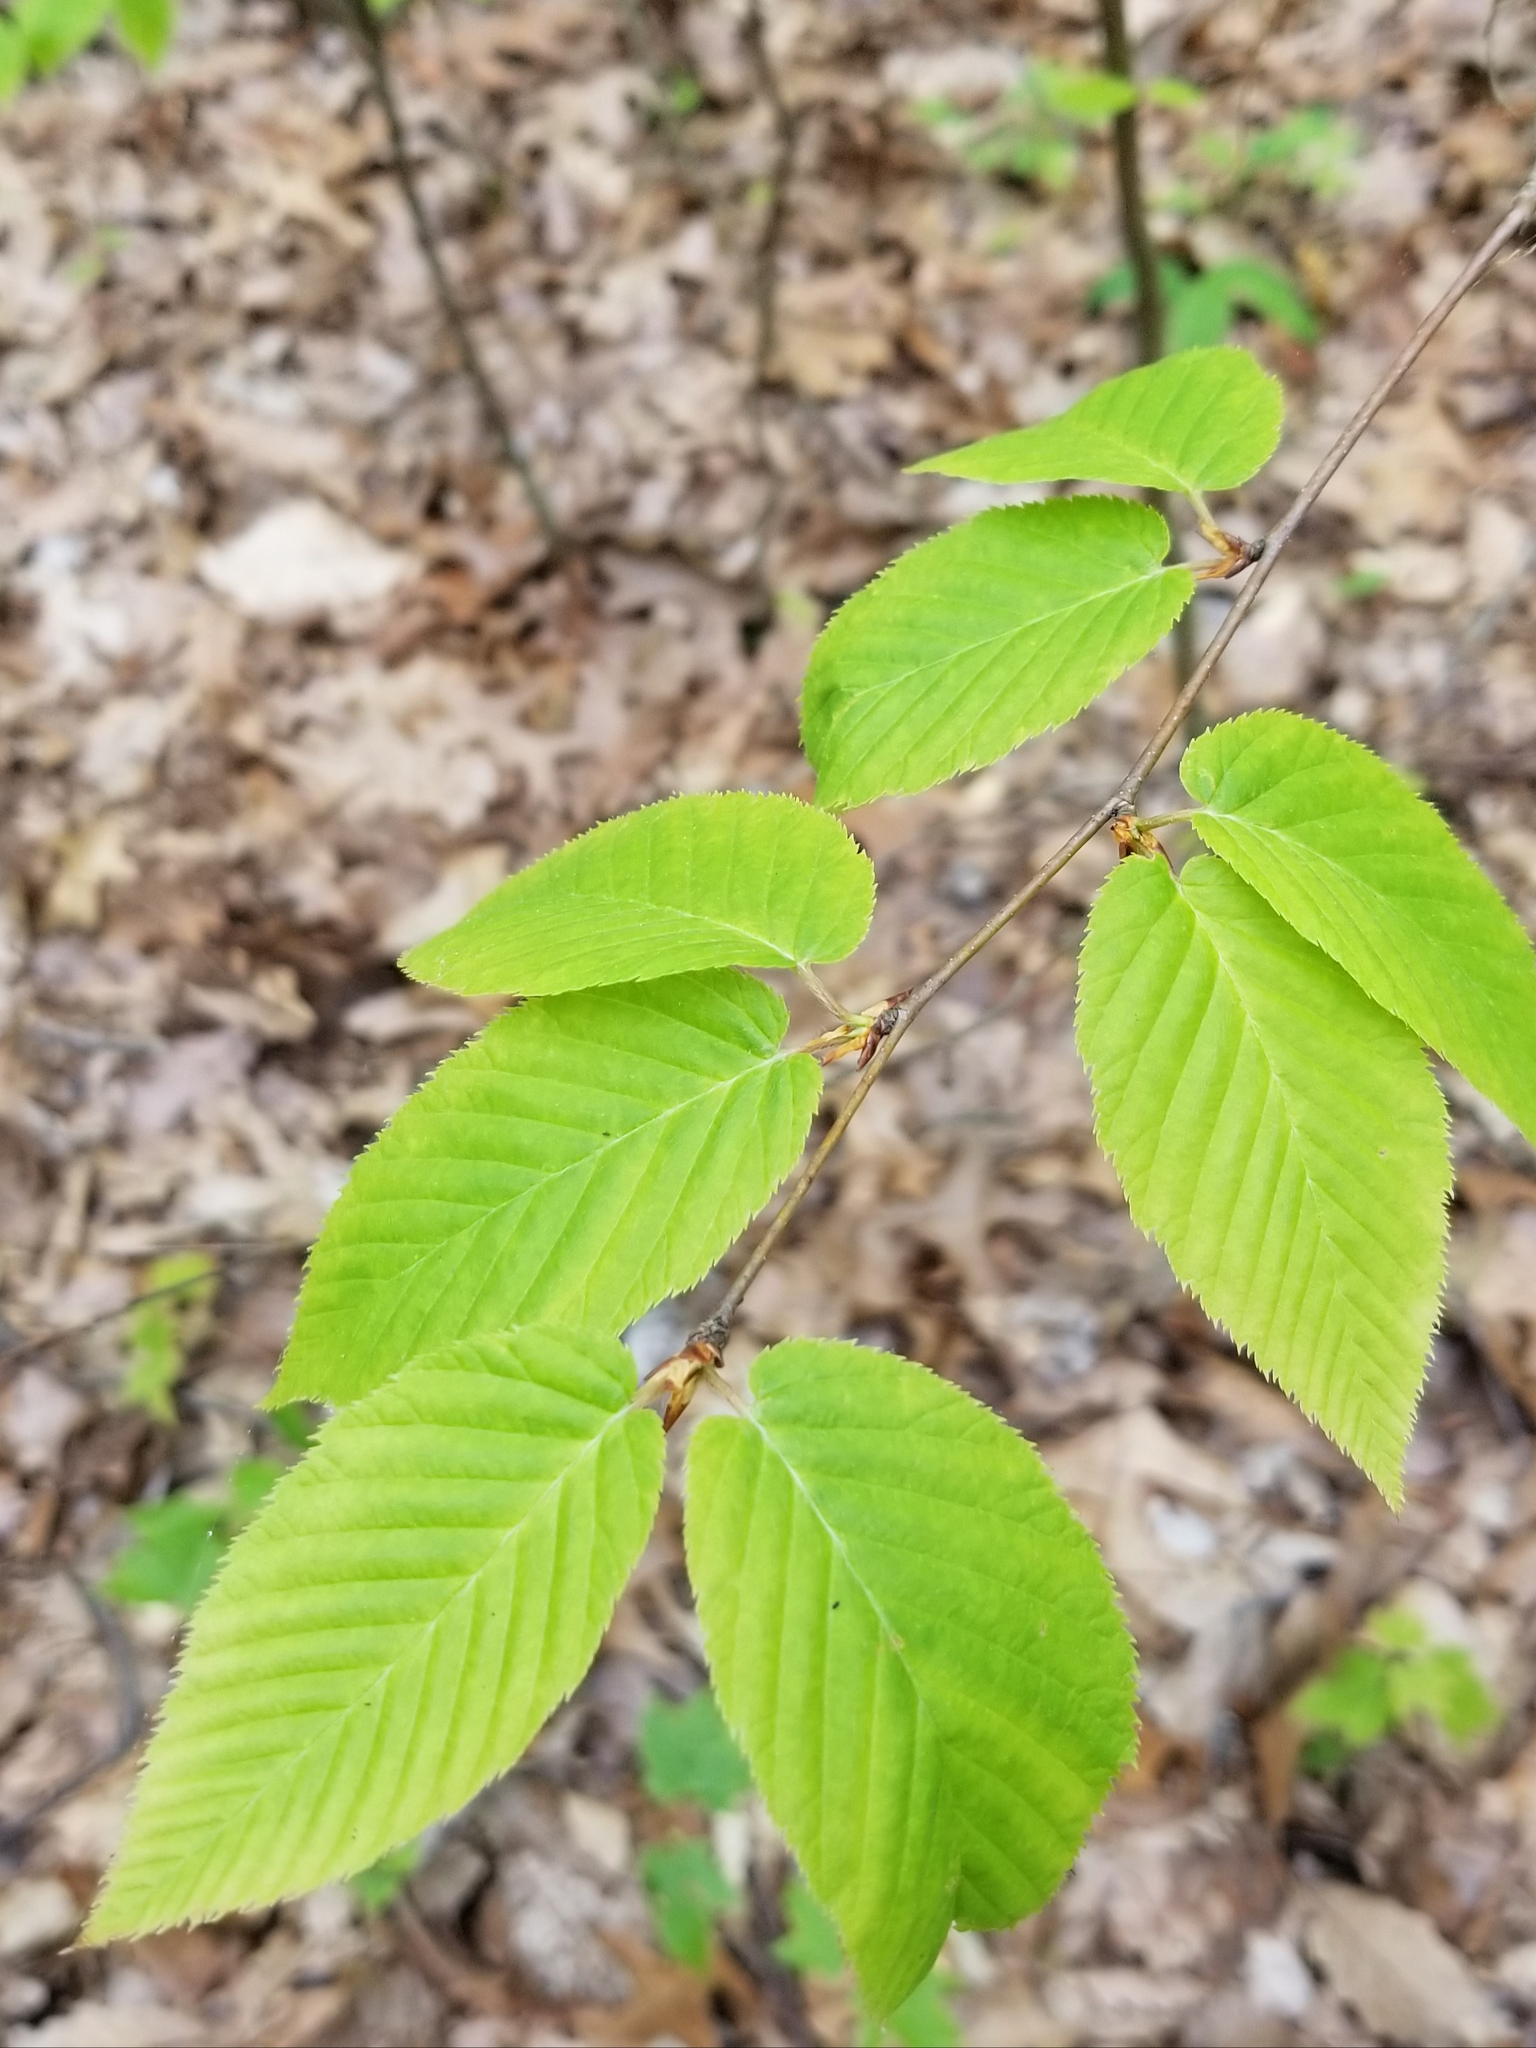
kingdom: Plantae
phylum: Tracheophyta
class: Magnoliopsida
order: Fagales
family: Betulaceae
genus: Betula
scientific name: Betula lenta
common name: Black birch
